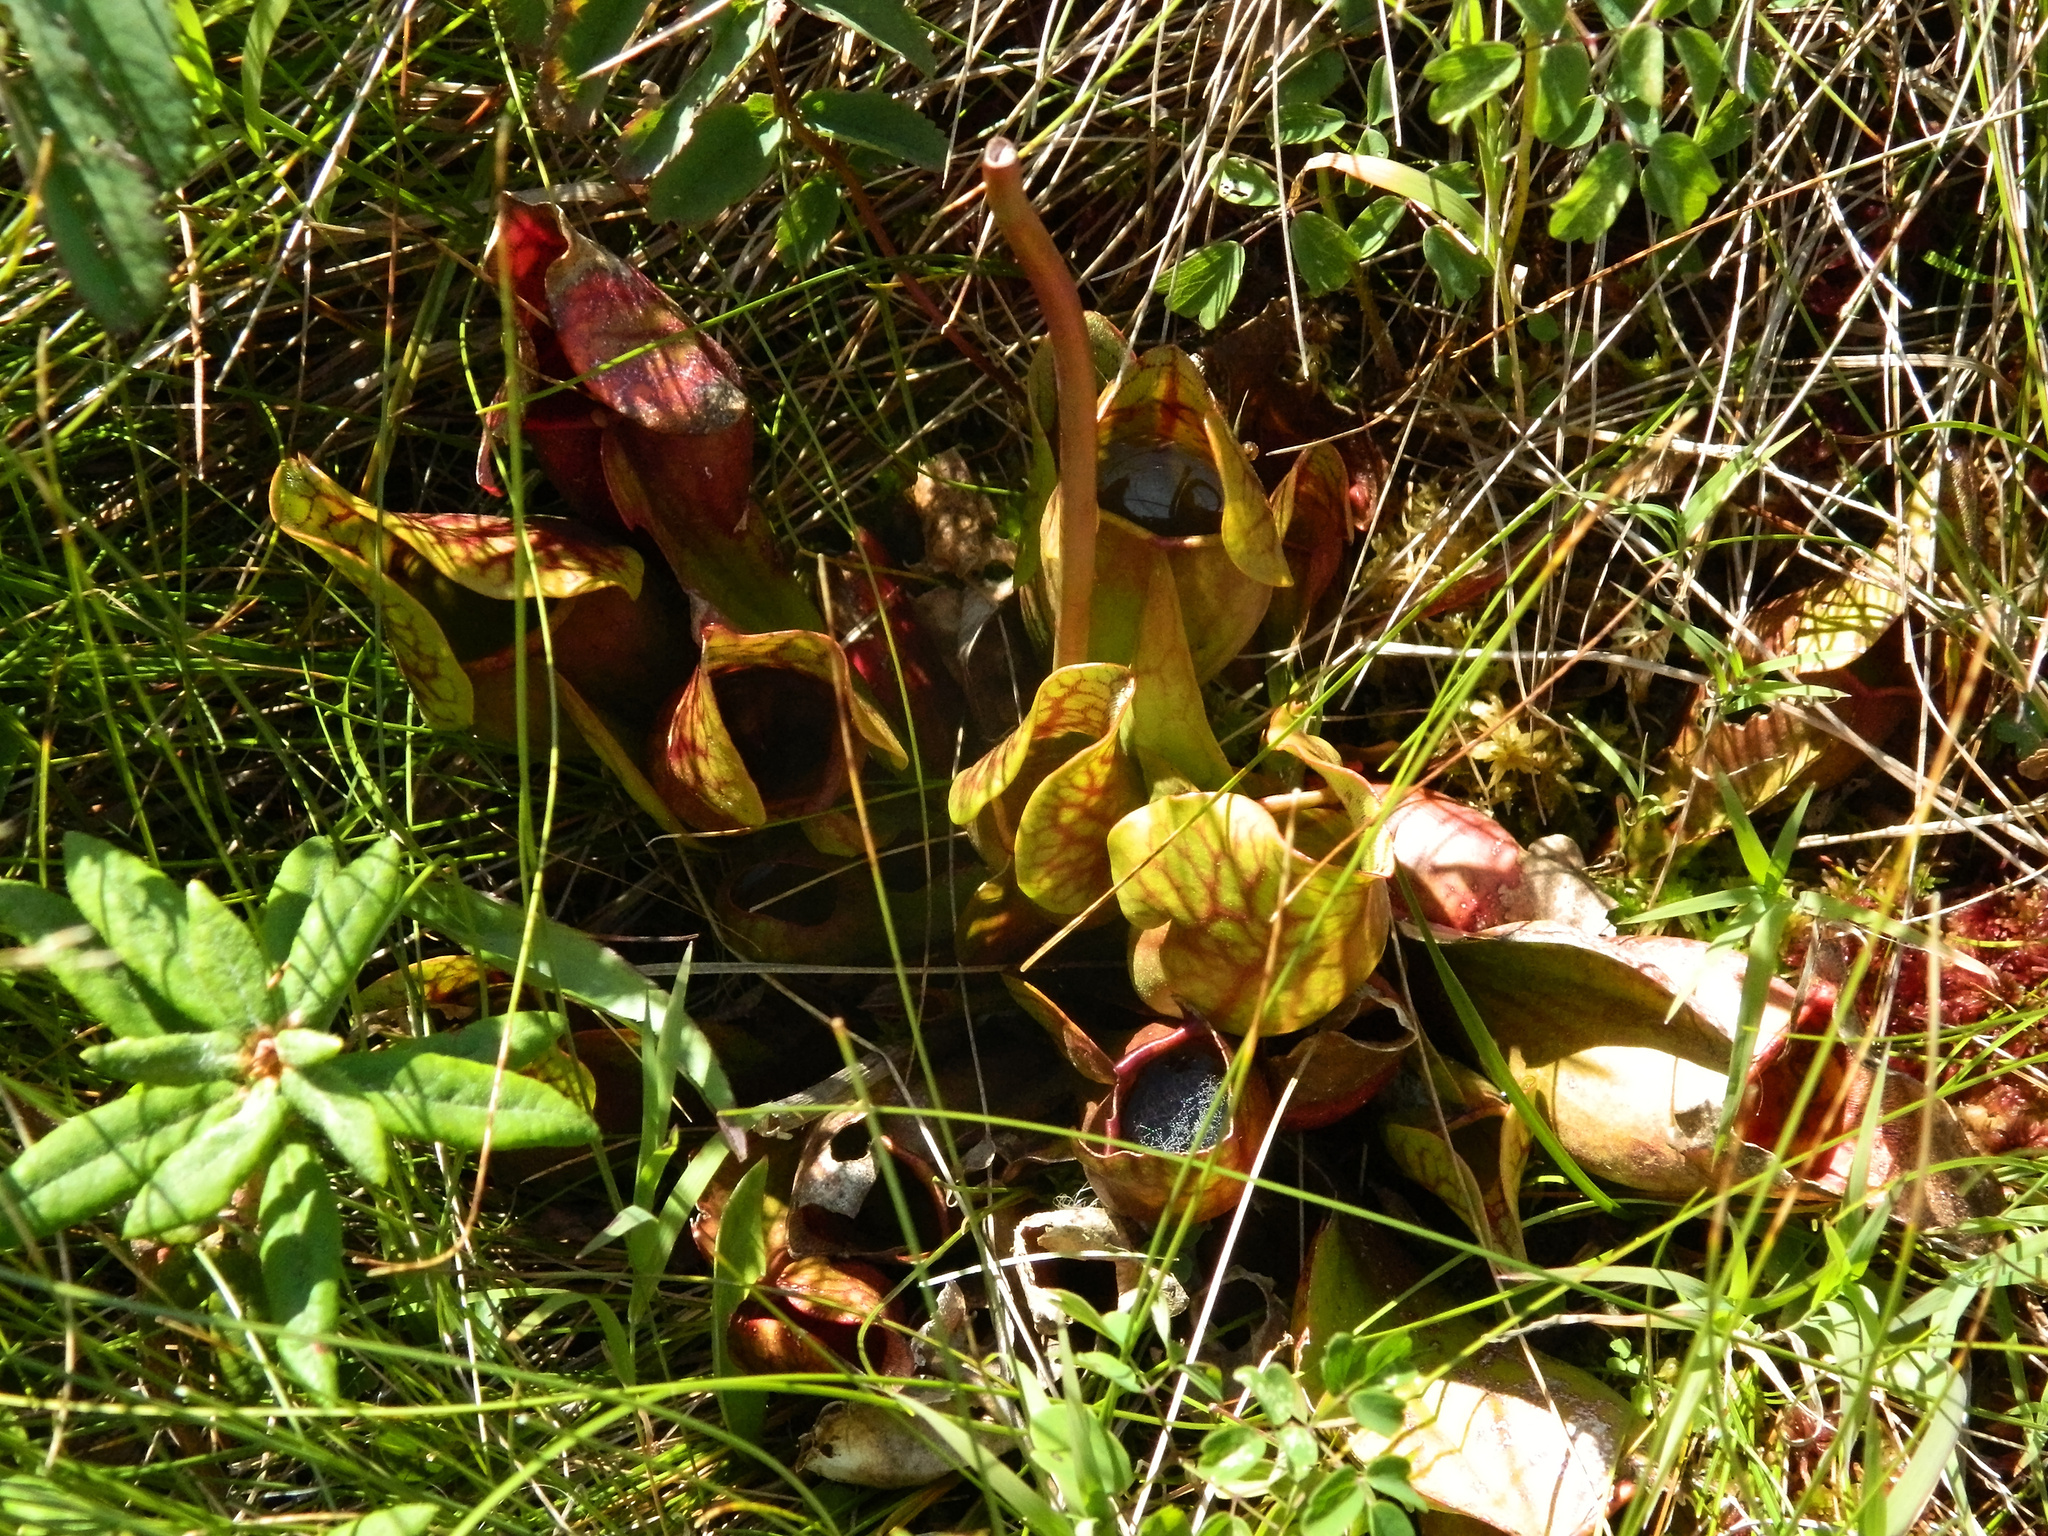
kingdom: Plantae
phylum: Tracheophyta
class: Magnoliopsida
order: Ericales
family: Sarraceniaceae
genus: Sarracenia
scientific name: Sarracenia purpurea
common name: Pitcherplant
